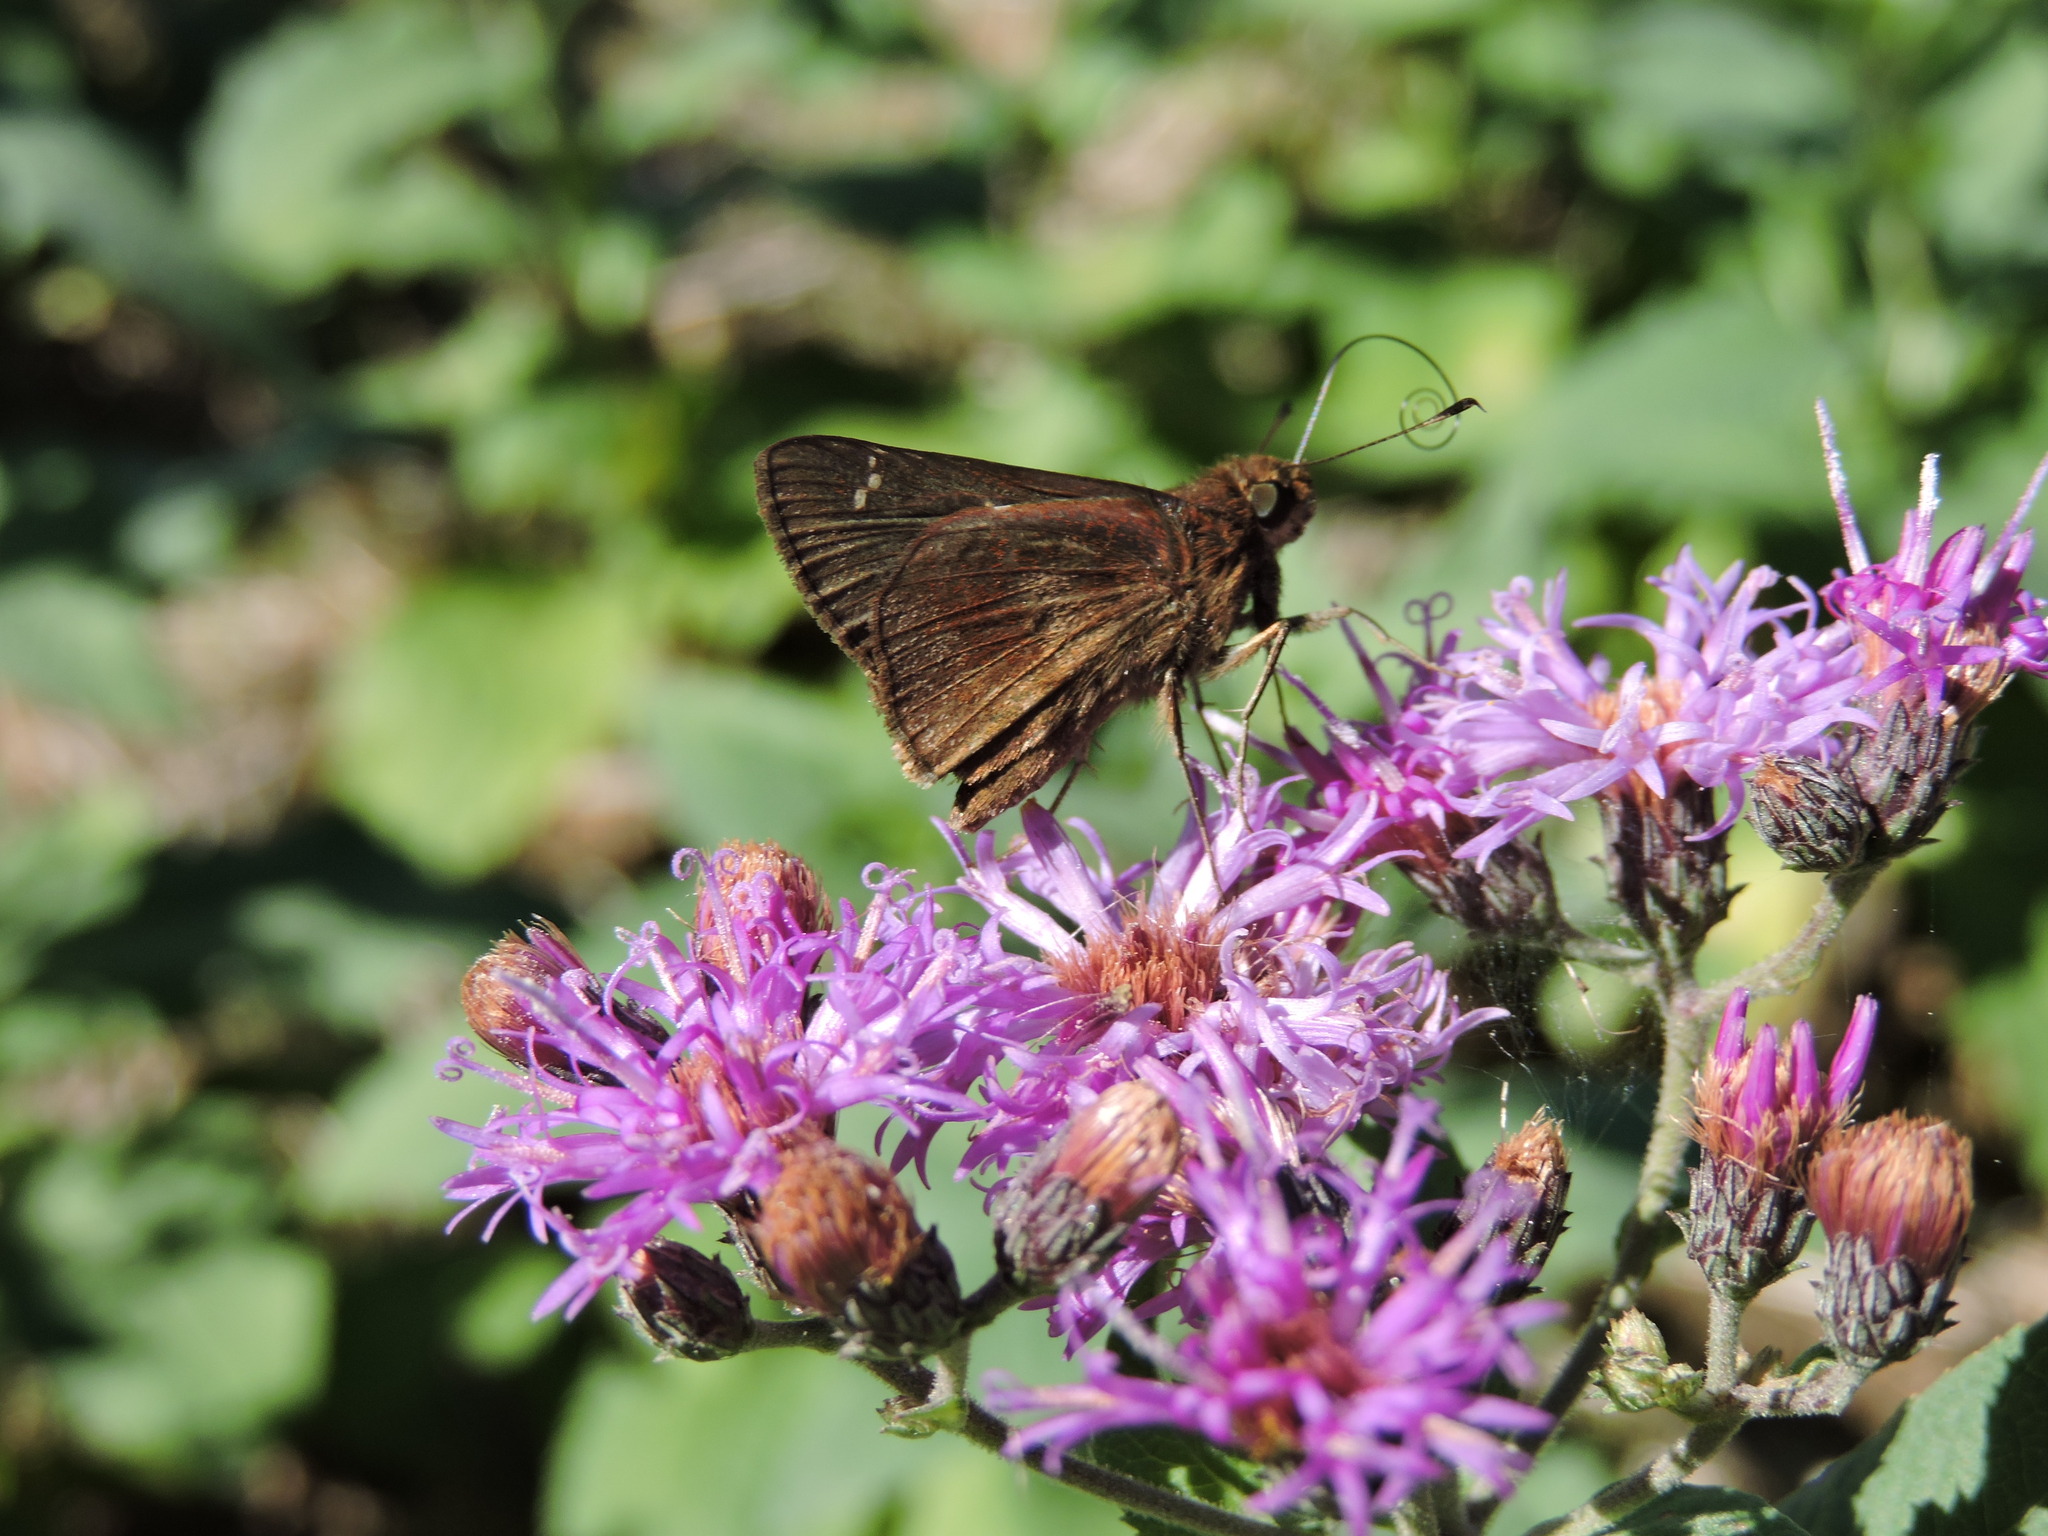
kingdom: Animalia
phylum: Arthropoda
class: Insecta
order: Lepidoptera
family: Hesperiidae
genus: Lerema
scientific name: Lerema accius
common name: Clouded skipper
